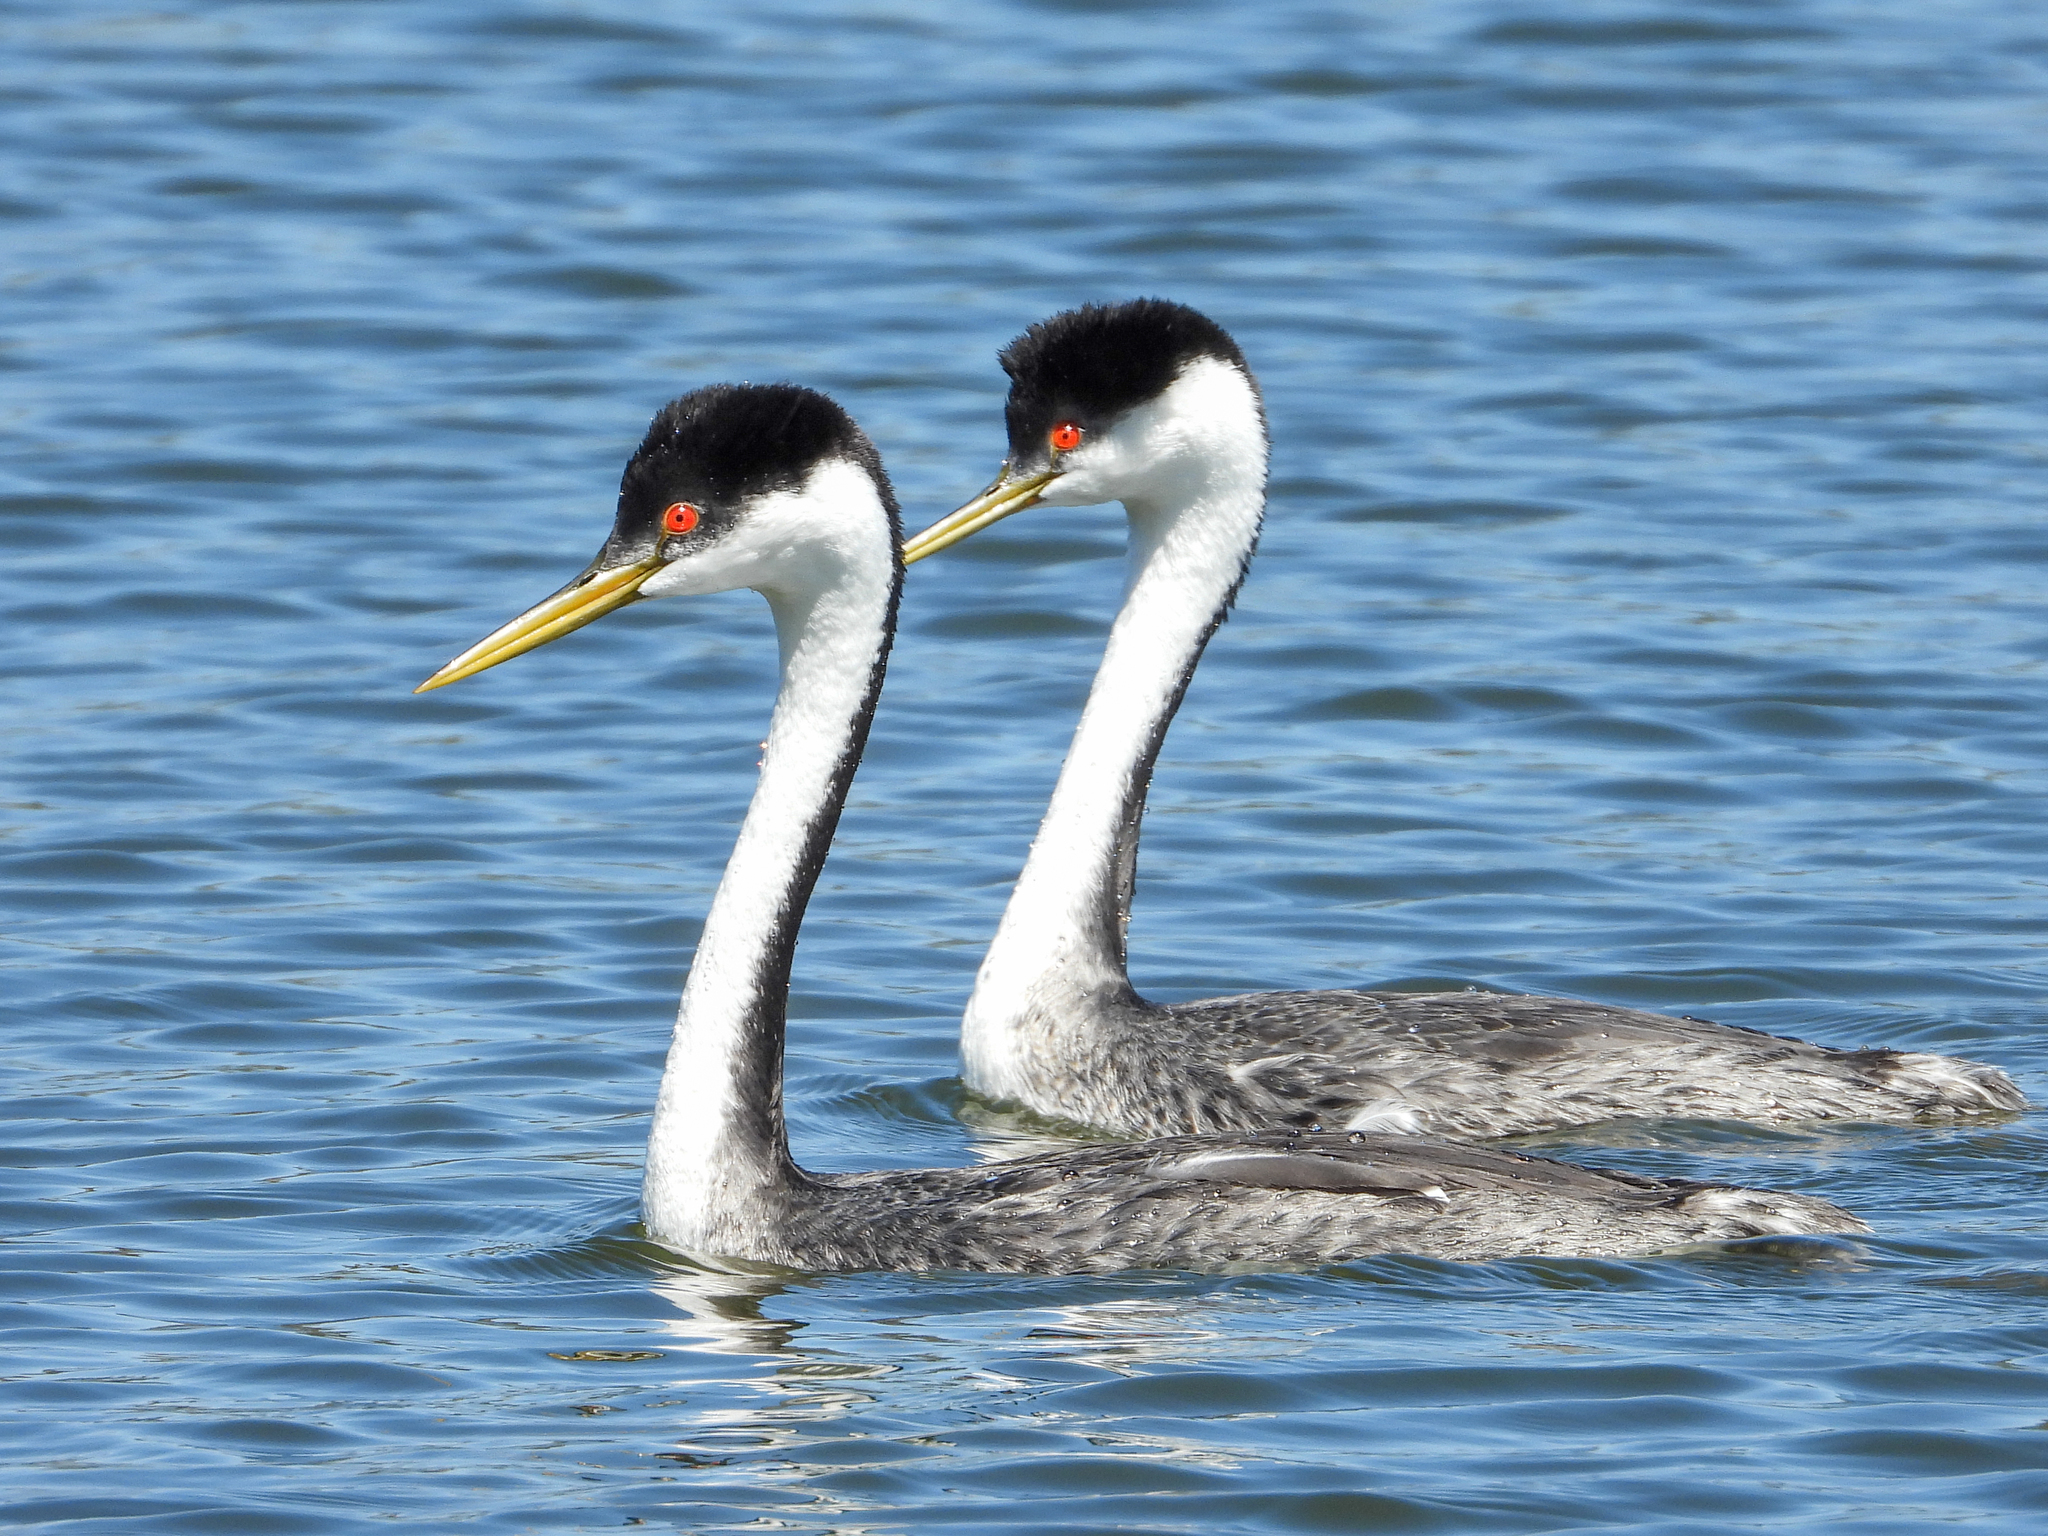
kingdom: Animalia
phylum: Chordata
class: Aves
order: Podicipediformes
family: Podicipedidae
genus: Aechmophorus
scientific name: Aechmophorus occidentalis
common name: Western grebe
